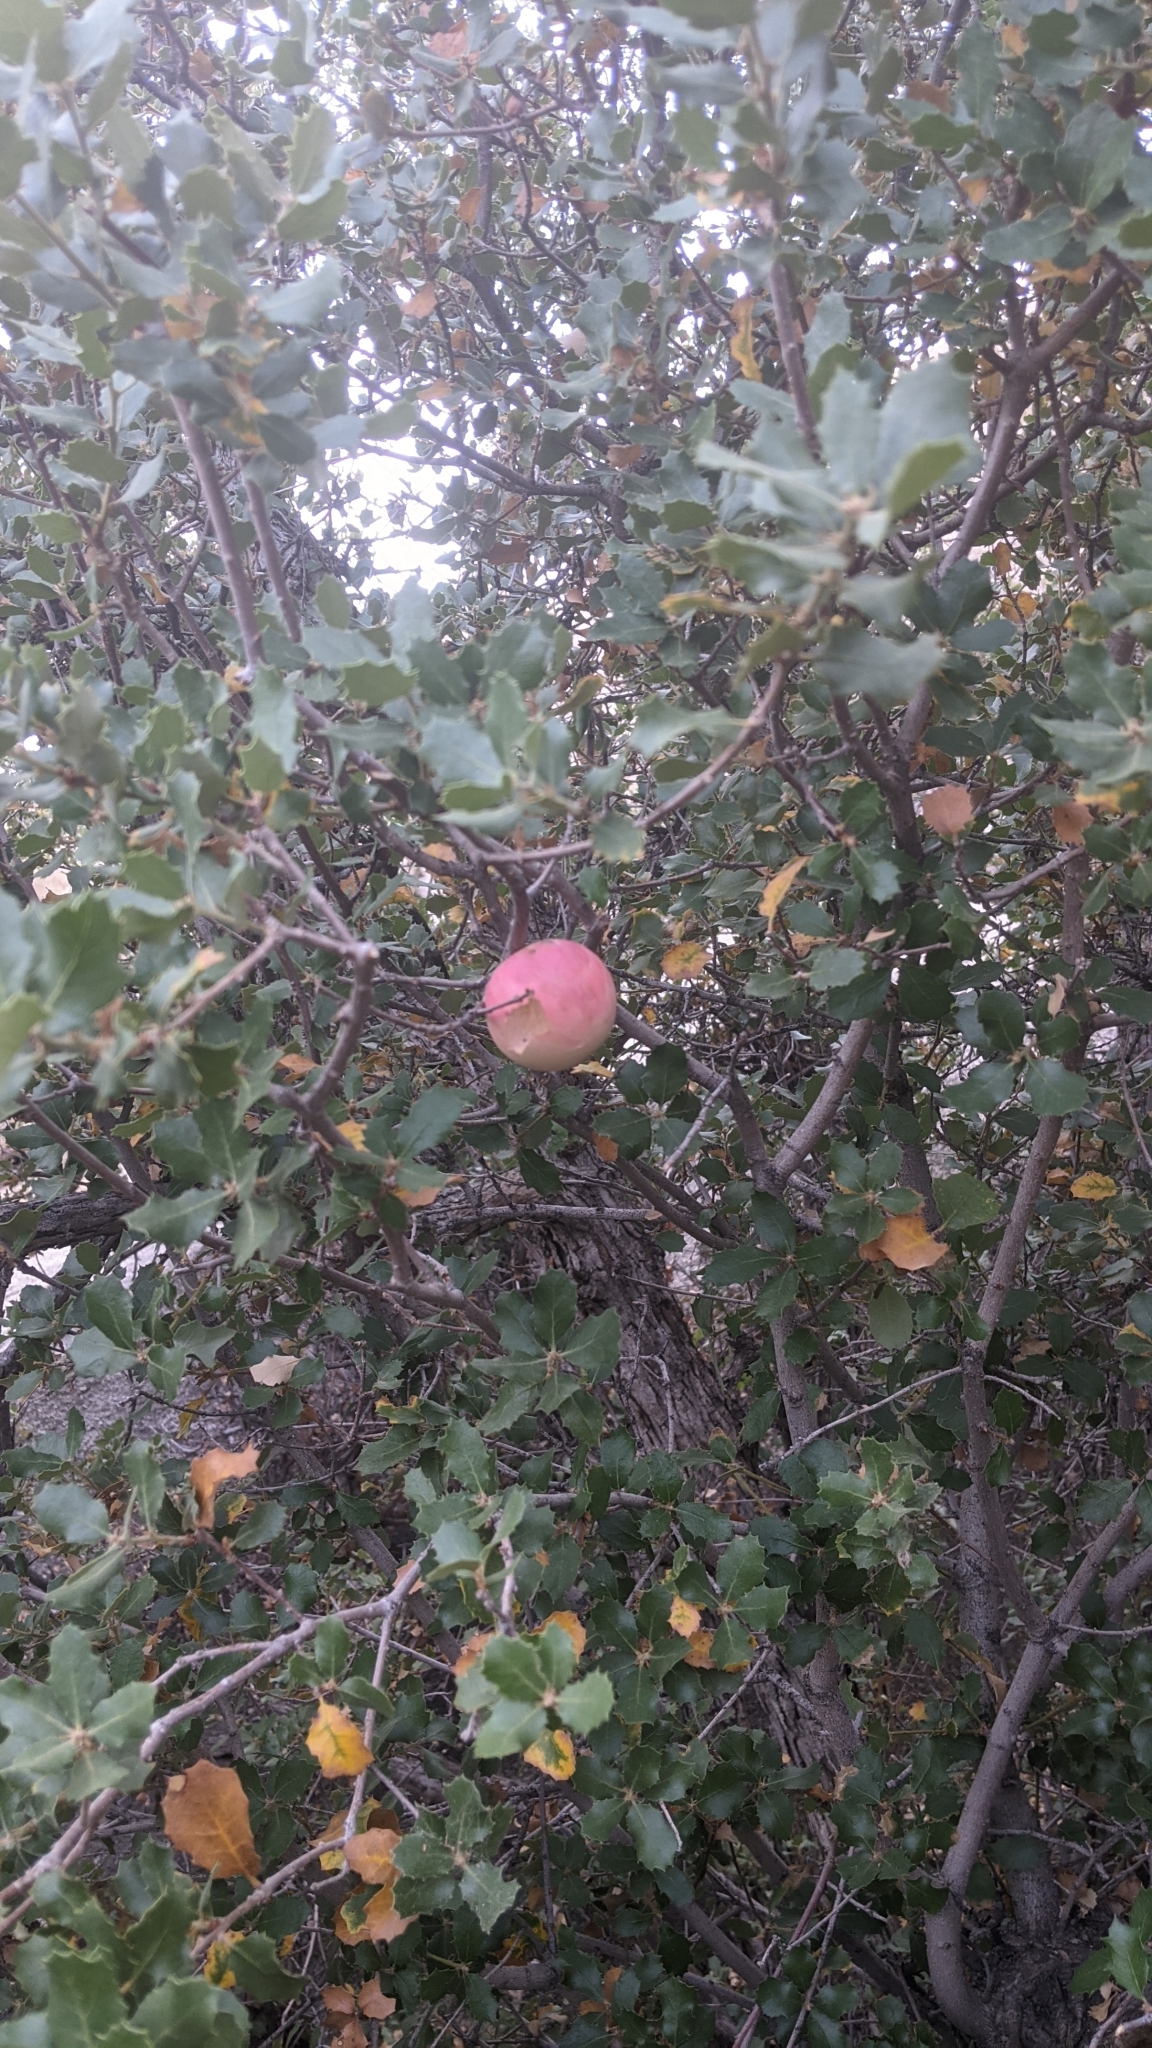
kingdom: Animalia
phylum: Arthropoda
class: Insecta
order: Hymenoptera
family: Cynipidae
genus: Andricus
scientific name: Andricus quercuscalifornicus
